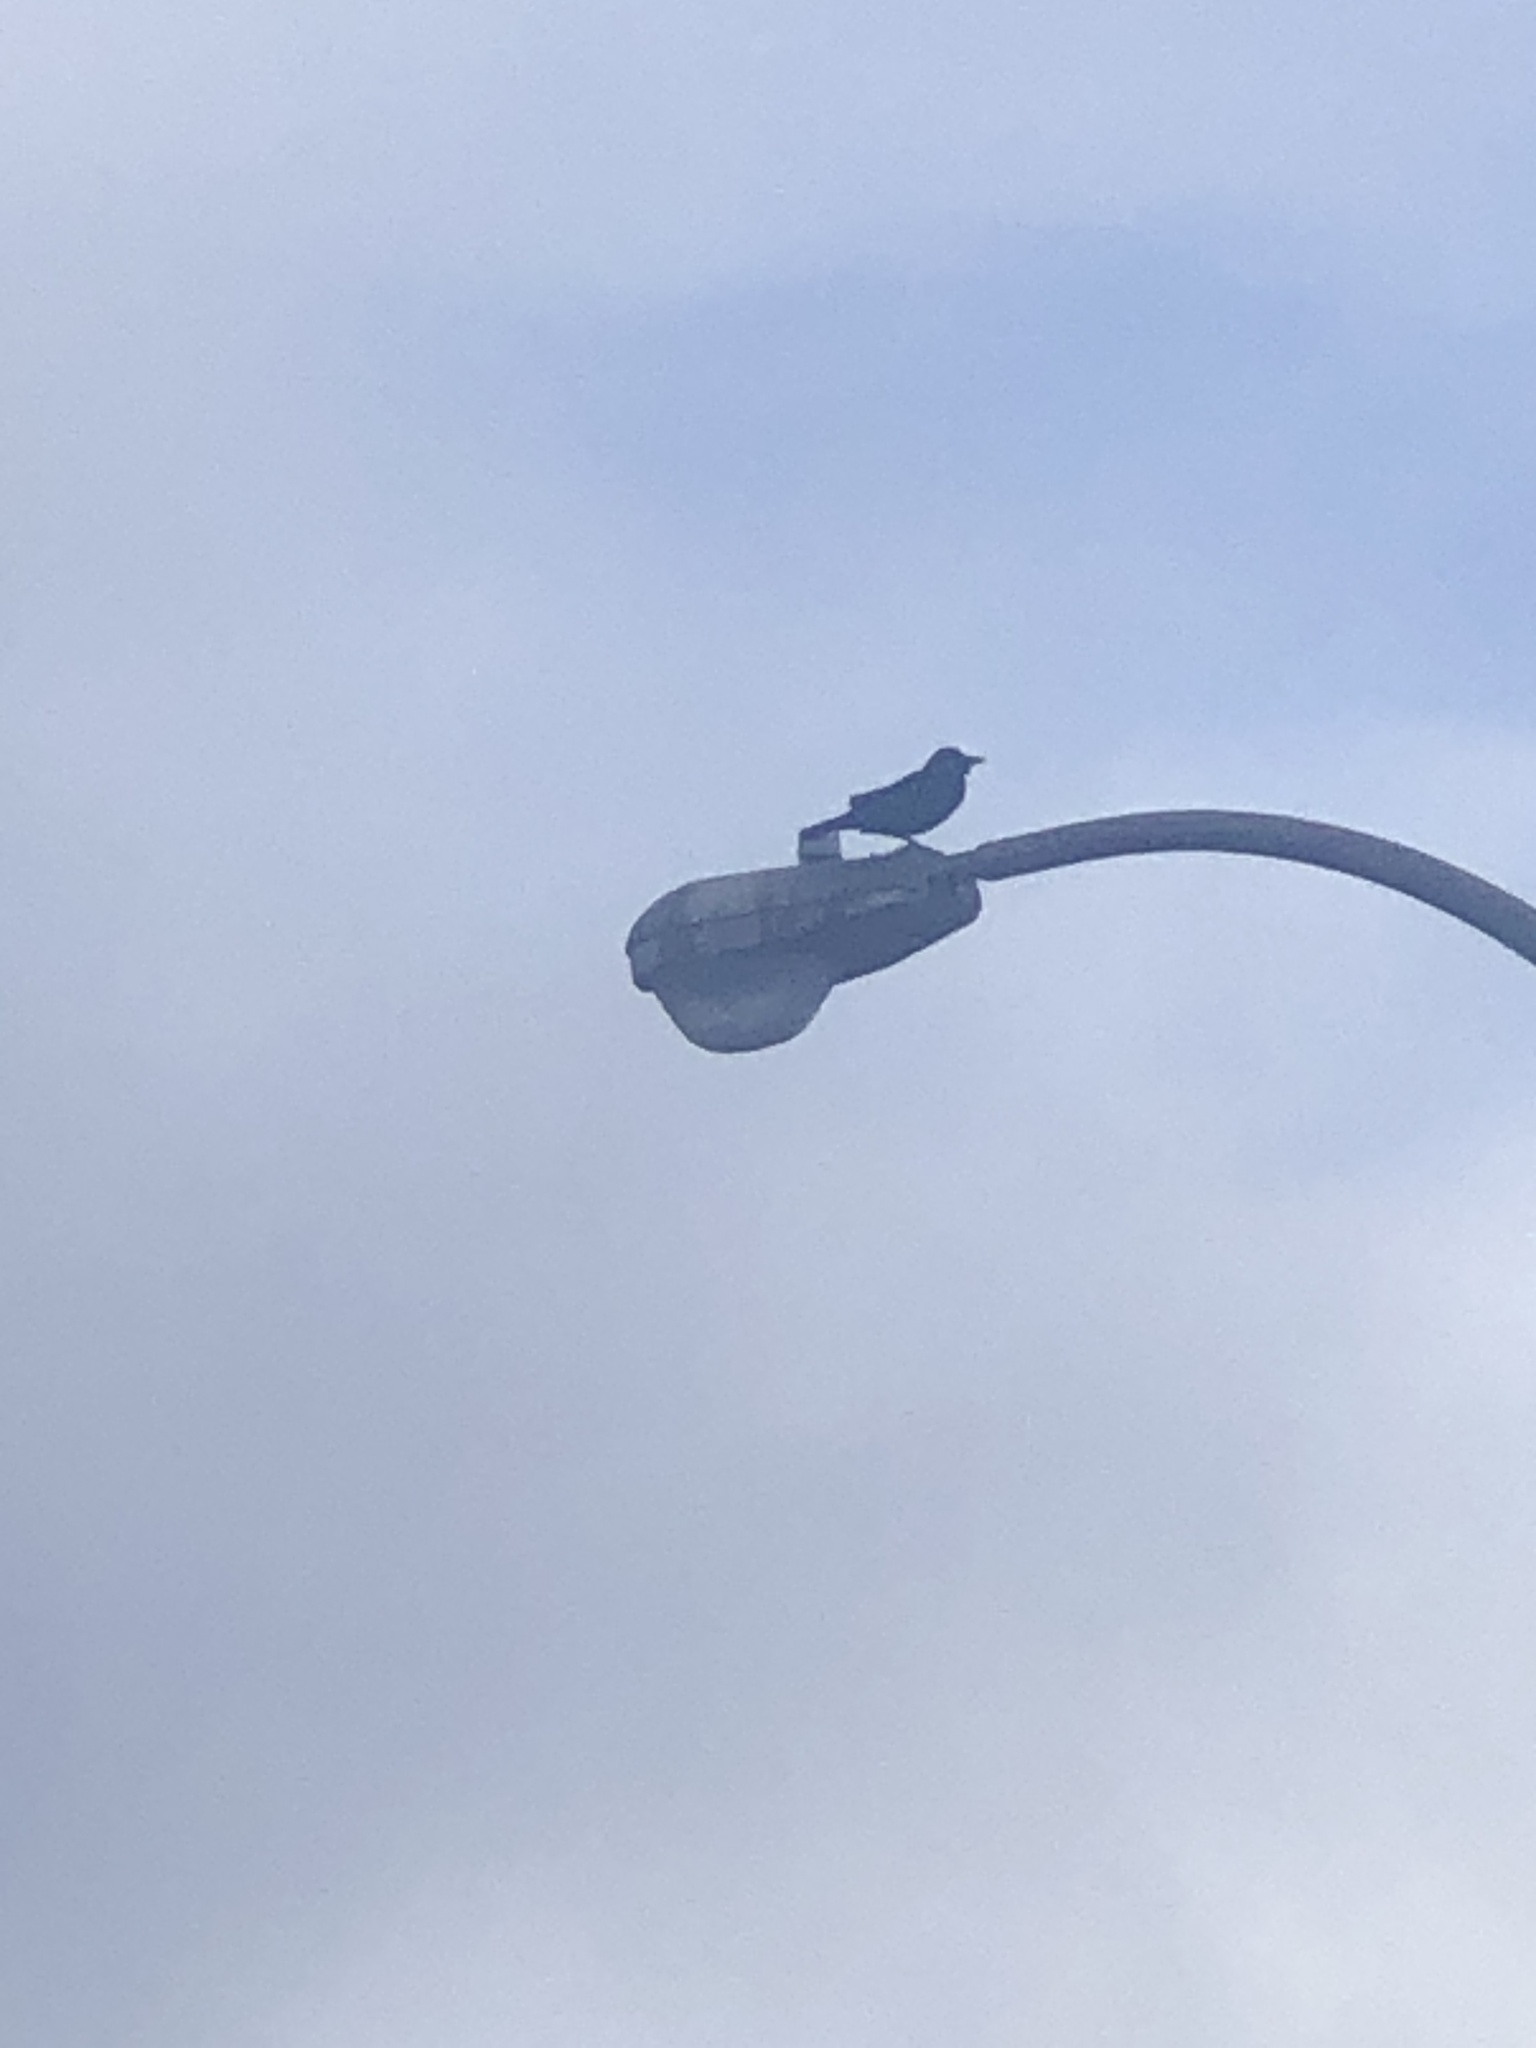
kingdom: Animalia
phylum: Chordata
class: Aves
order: Passeriformes
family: Corvidae
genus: Corvus
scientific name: Corvus brachyrhynchos
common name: American crow
